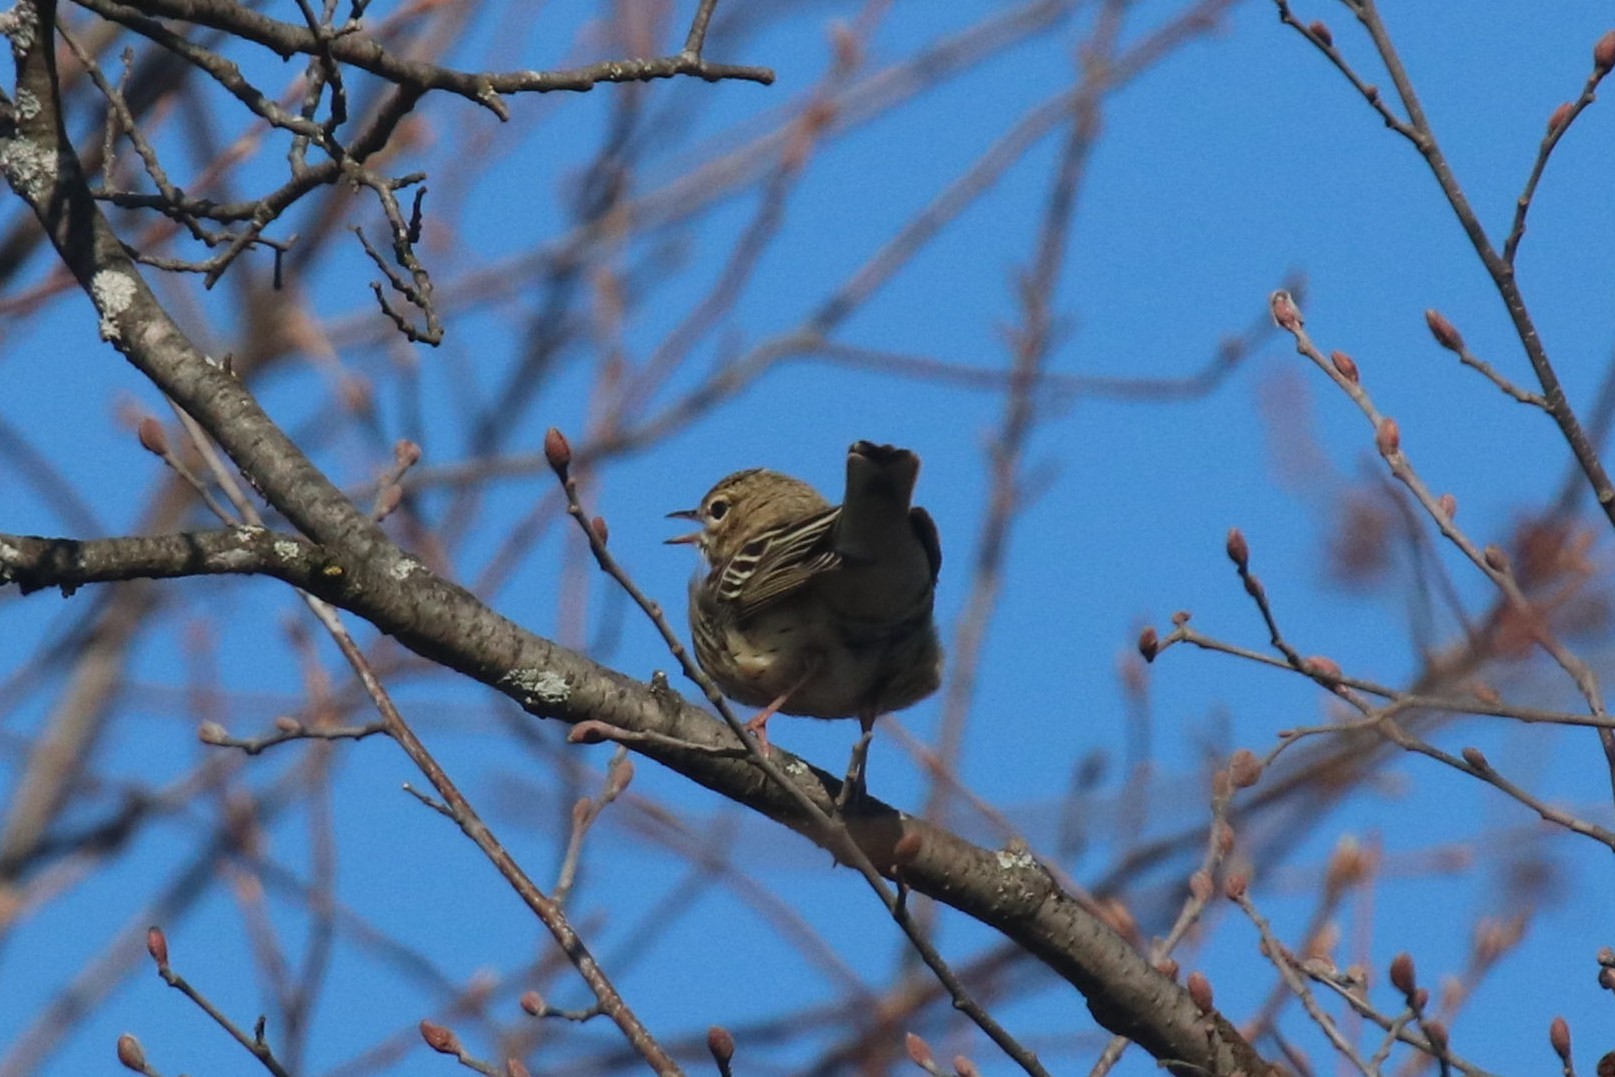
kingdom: Animalia
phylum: Chordata
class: Aves
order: Passeriformes
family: Motacillidae
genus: Anthus
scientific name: Anthus trivialis
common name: Tree pipit
